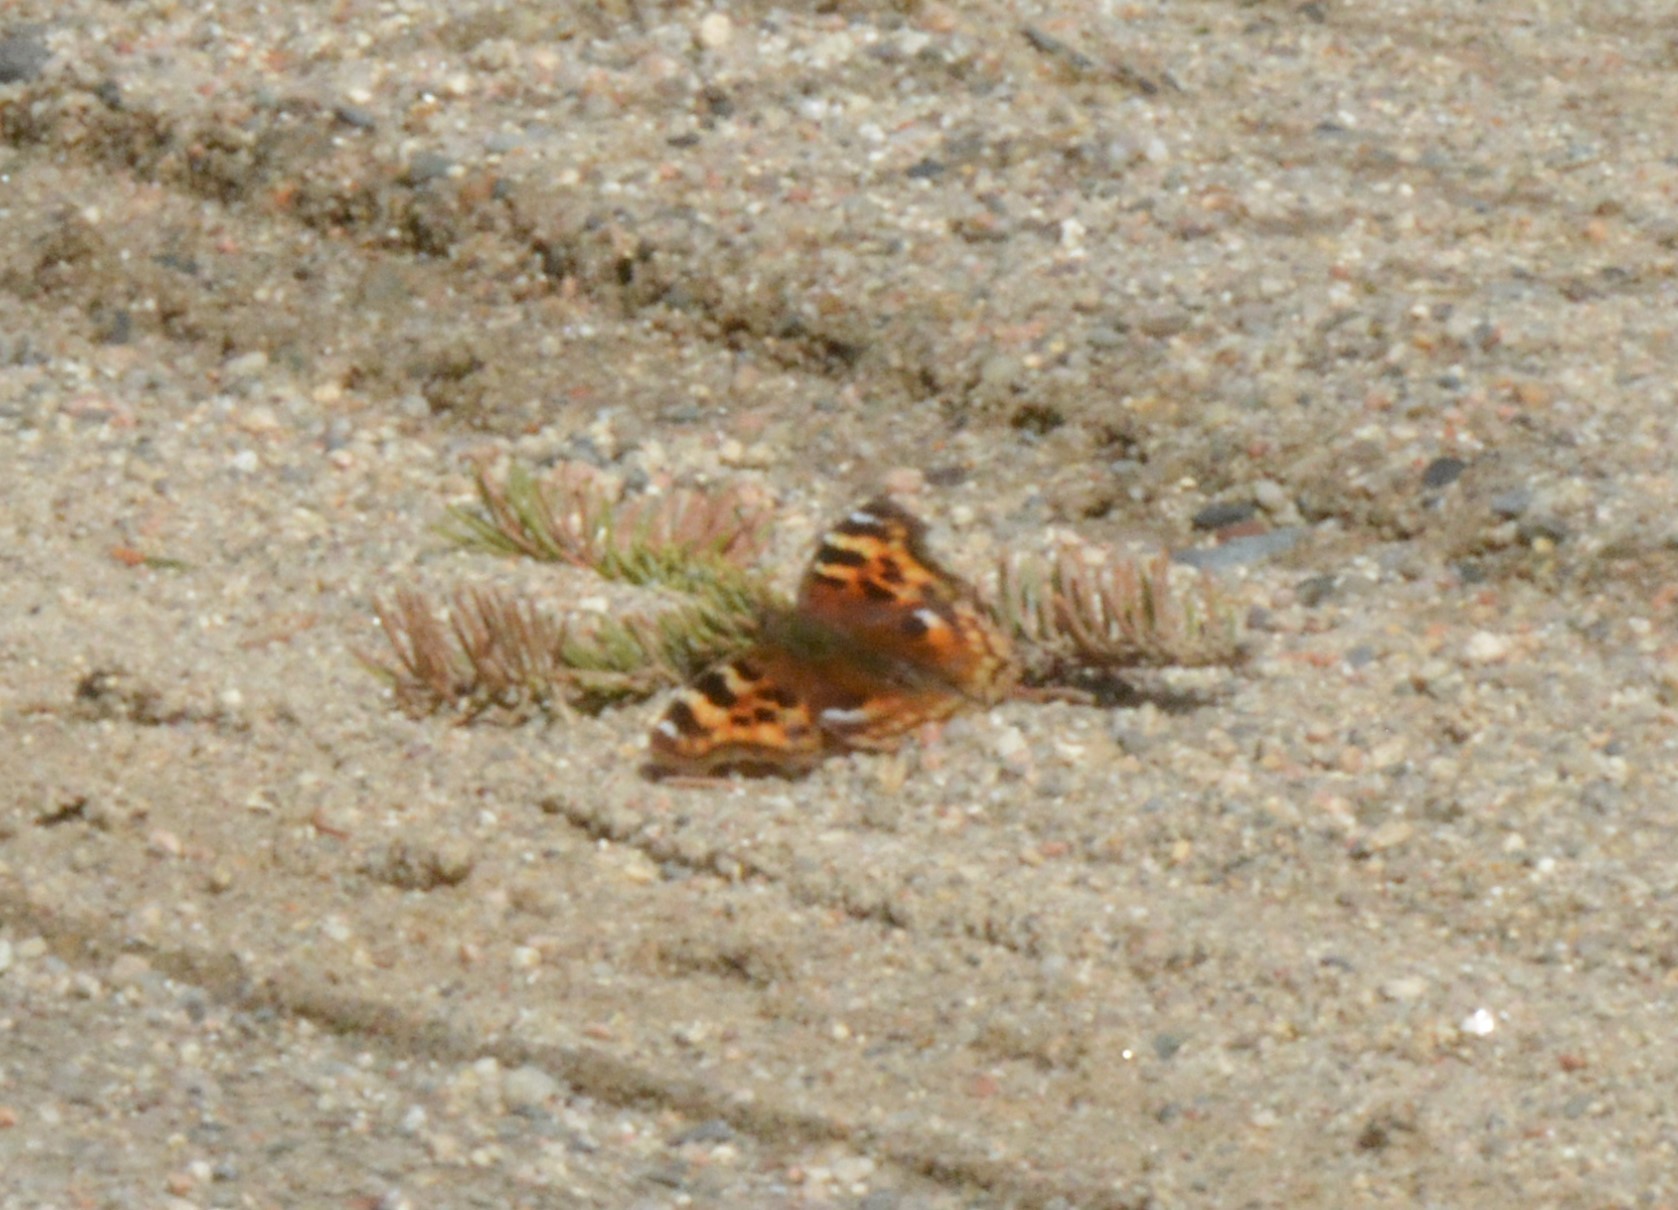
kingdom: Animalia
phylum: Arthropoda
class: Insecta
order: Lepidoptera
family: Nymphalidae
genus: Polygonia
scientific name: Polygonia vaualbum
